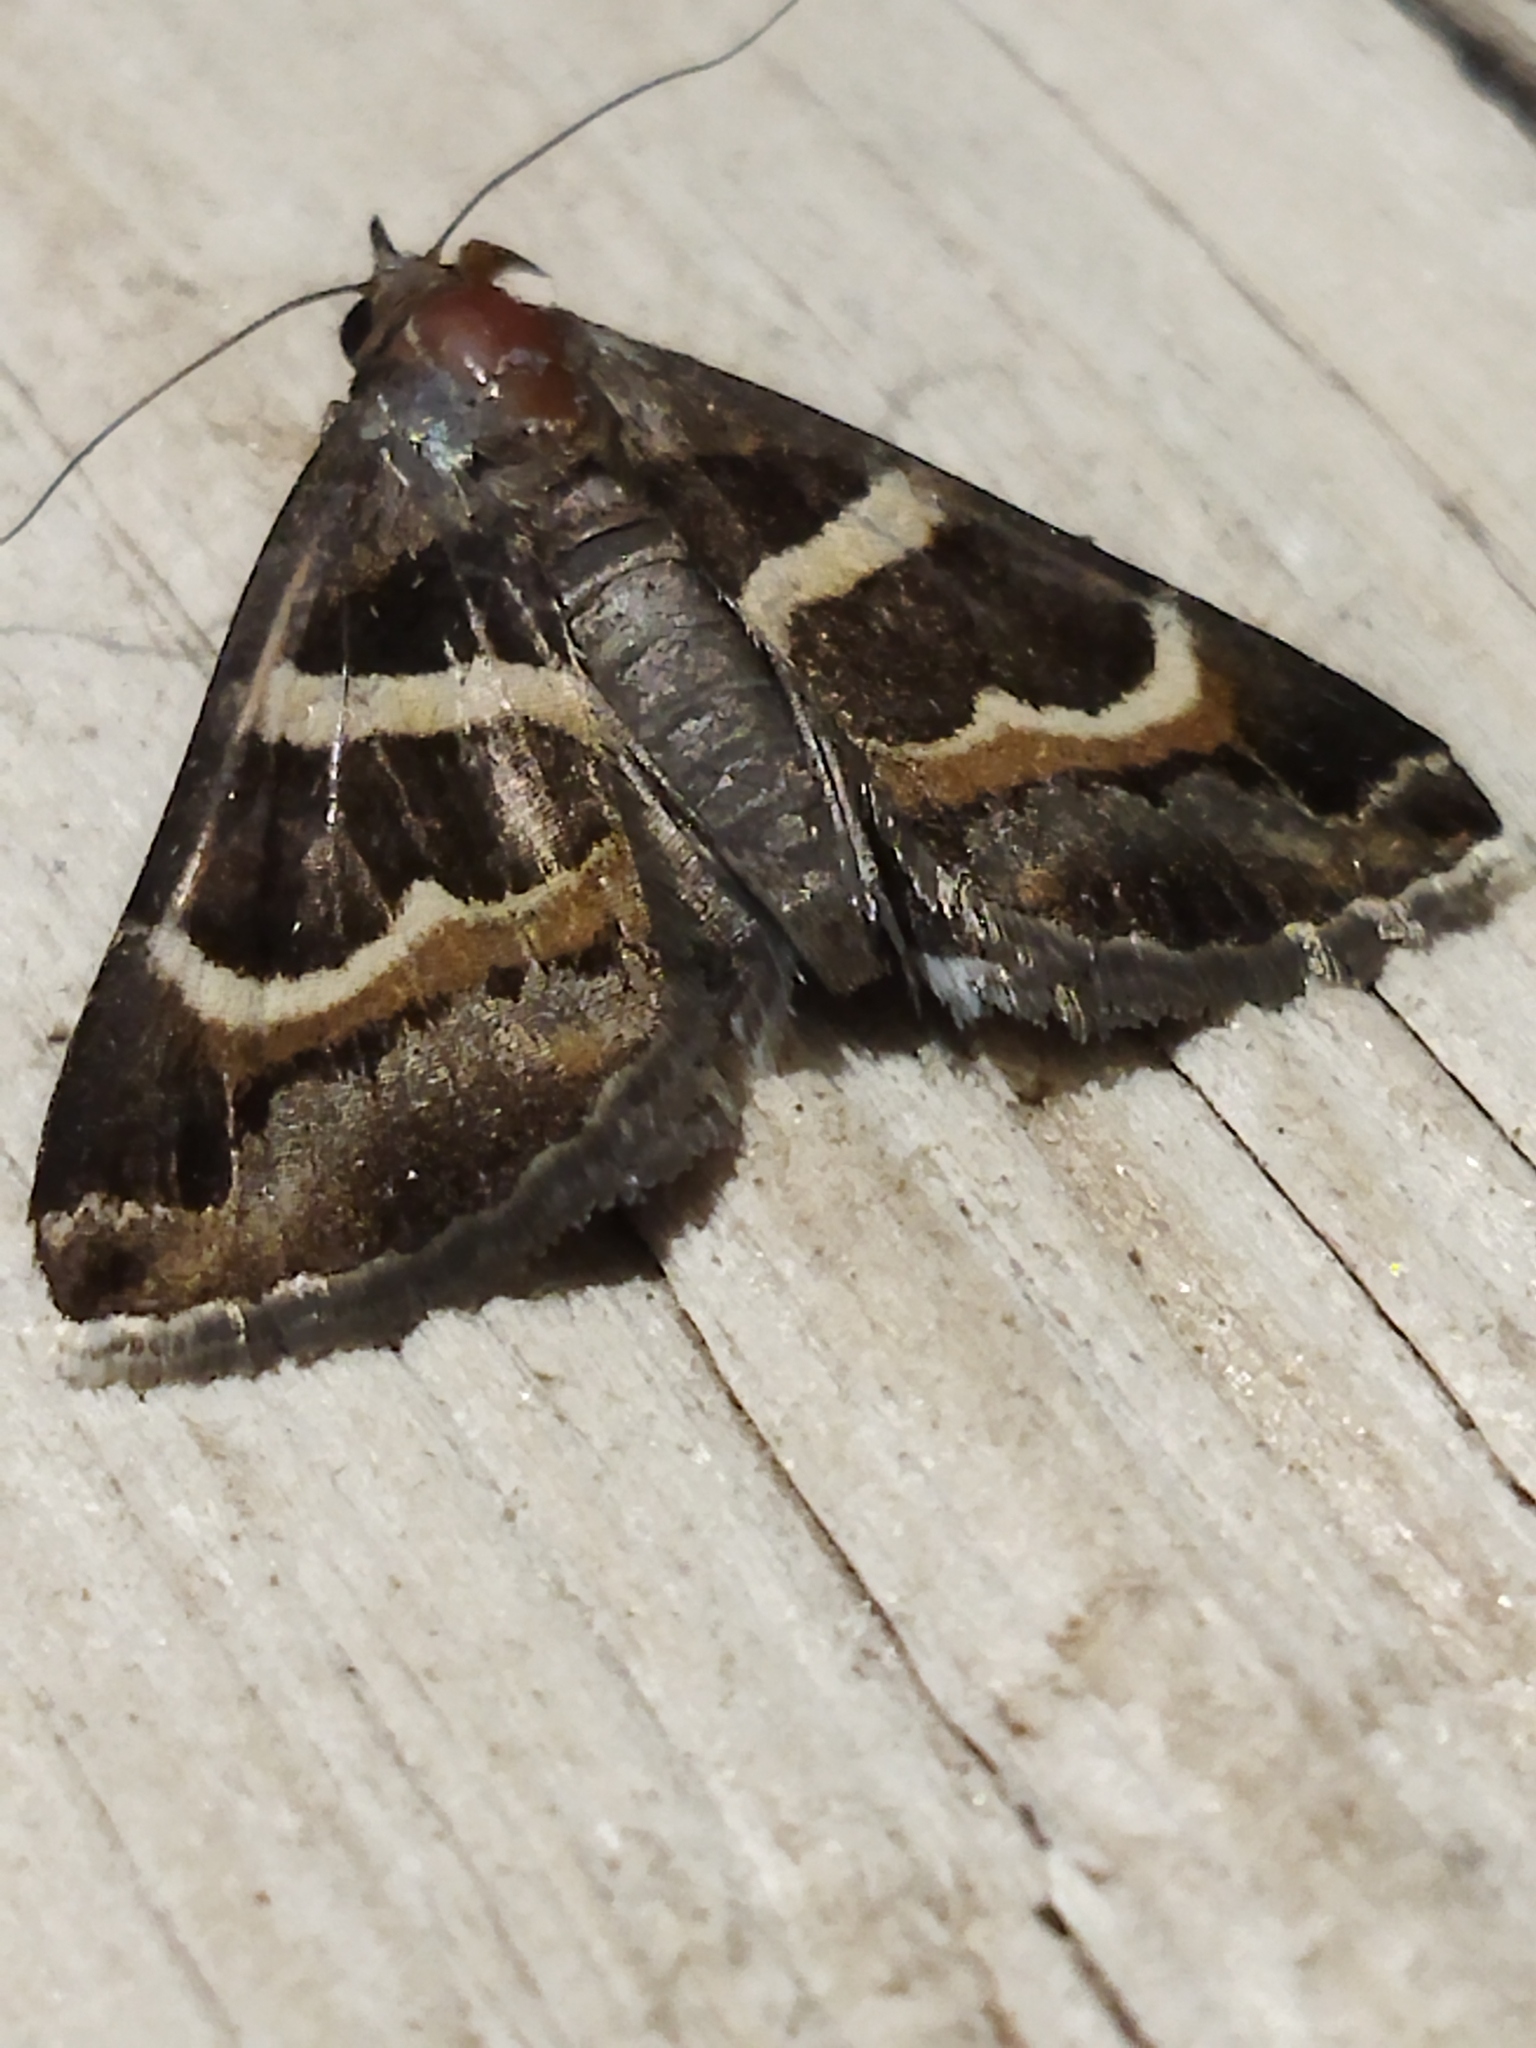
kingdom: Animalia
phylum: Arthropoda
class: Insecta
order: Lepidoptera
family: Erebidae
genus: Grammodes
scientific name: Grammodes stolida
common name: Geometrician
